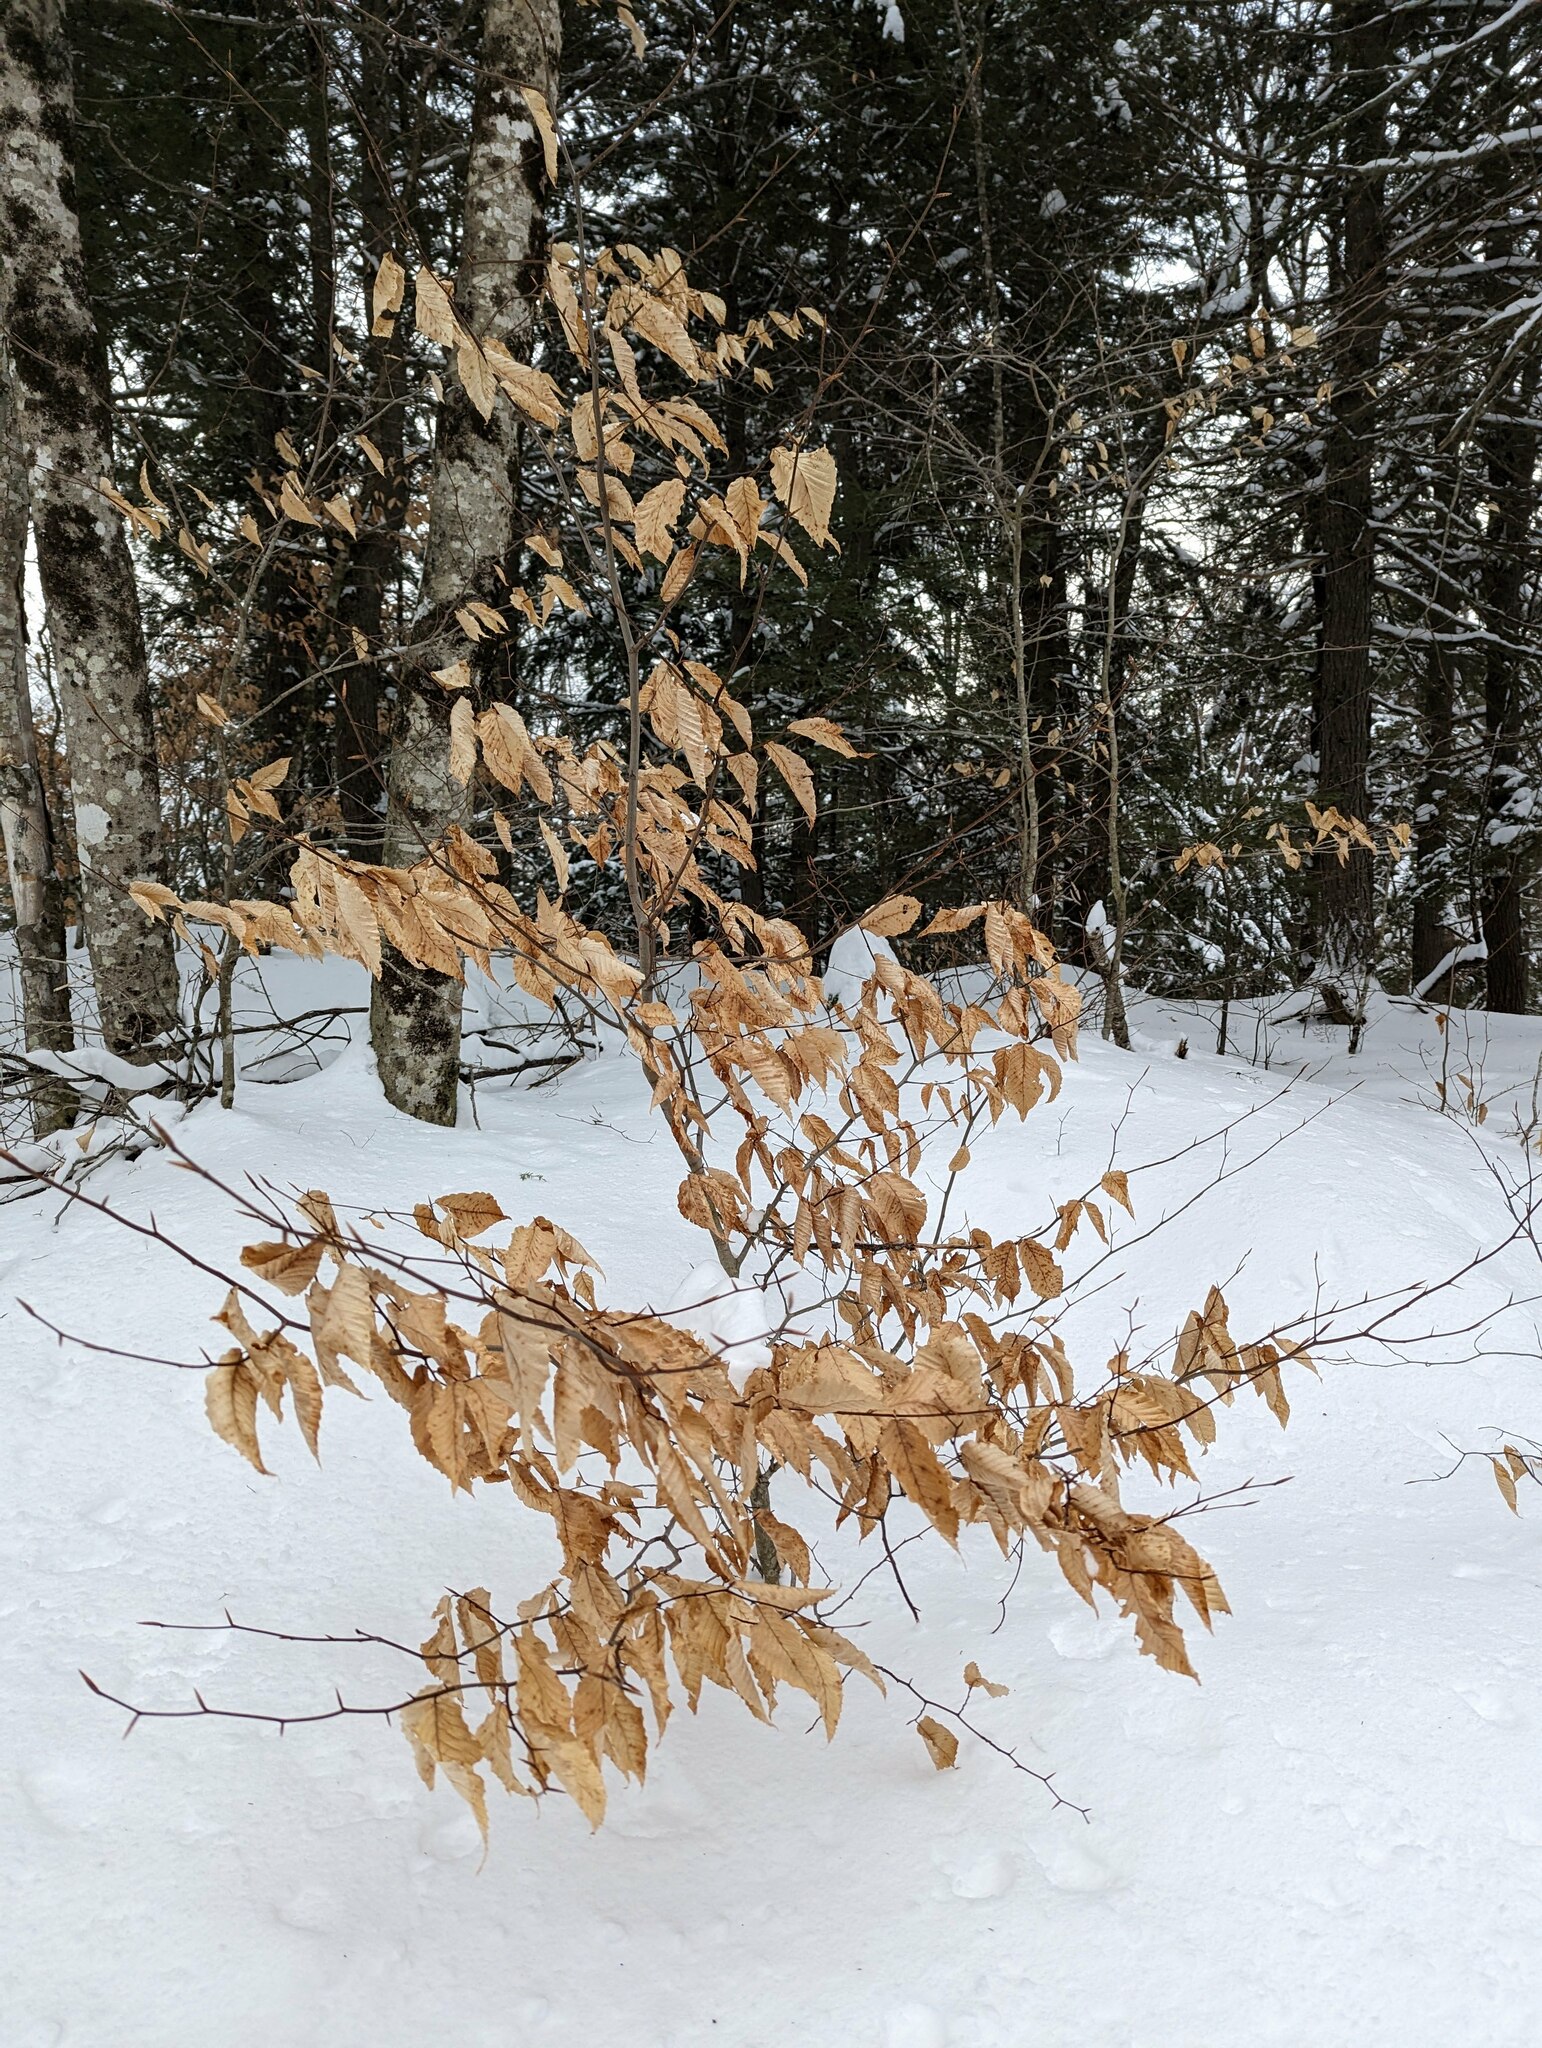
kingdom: Plantae
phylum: Tracheophyta
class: Magnoliopsida
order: Fagales
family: Fagaceae
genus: Fagus
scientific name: Fagus grandifolia
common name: American beech
